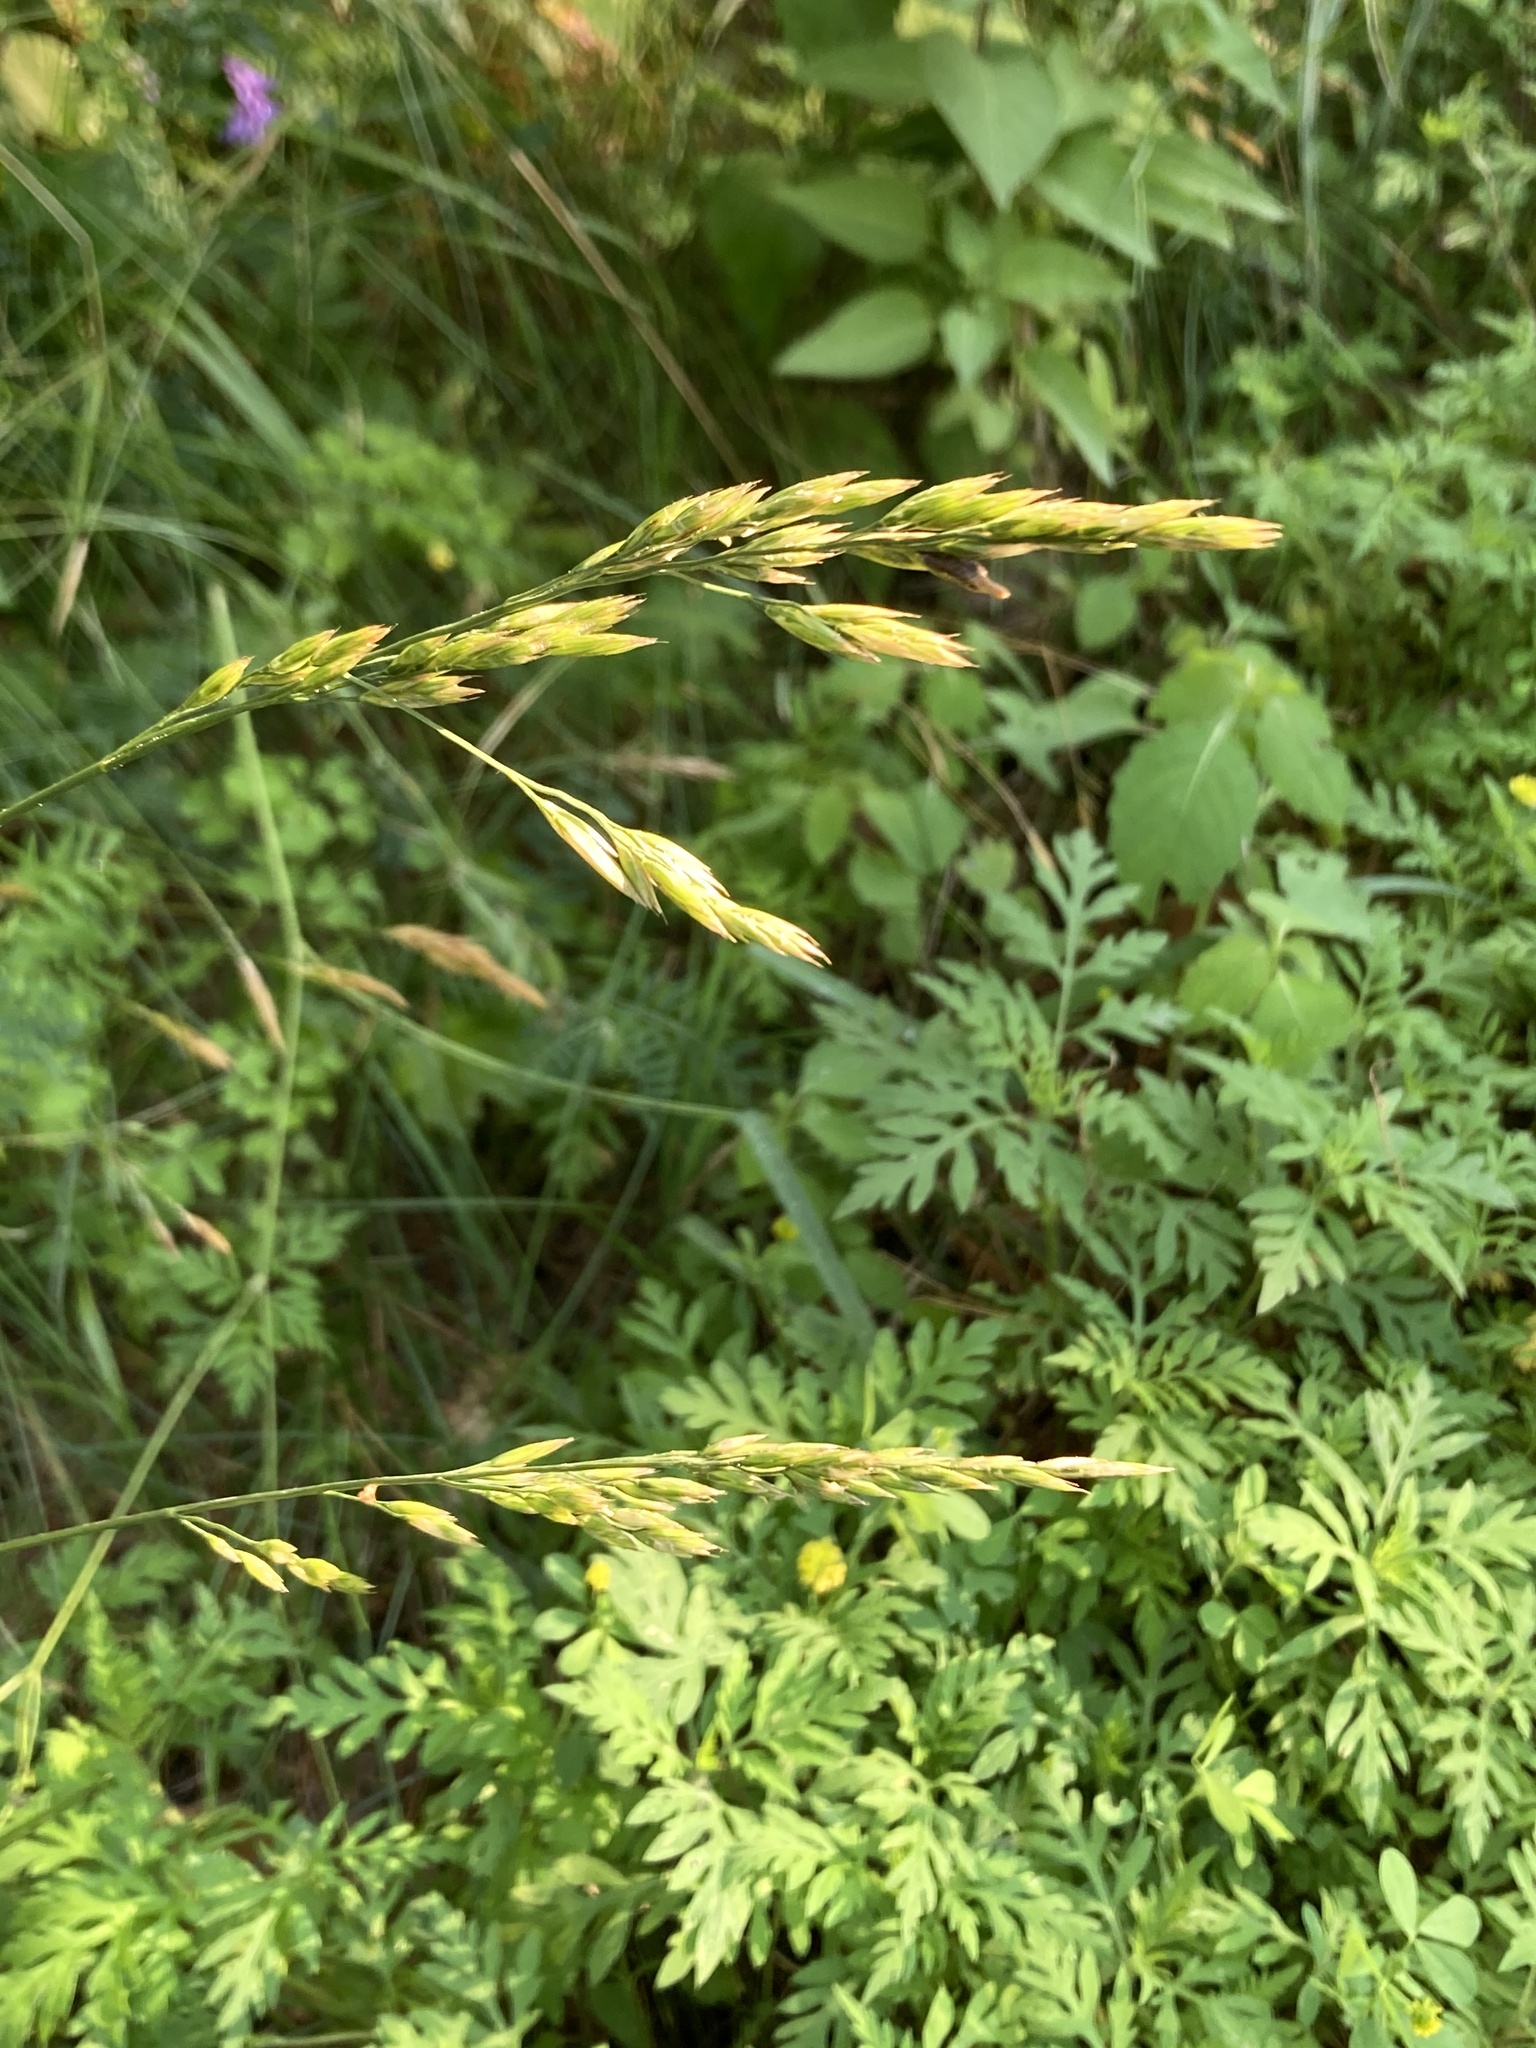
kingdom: Plantae
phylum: Tracheophyta
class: Liliopsida
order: Poales
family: Poaceae
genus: Lolium
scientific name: Lolium arundinaceum
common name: Reed fescue
